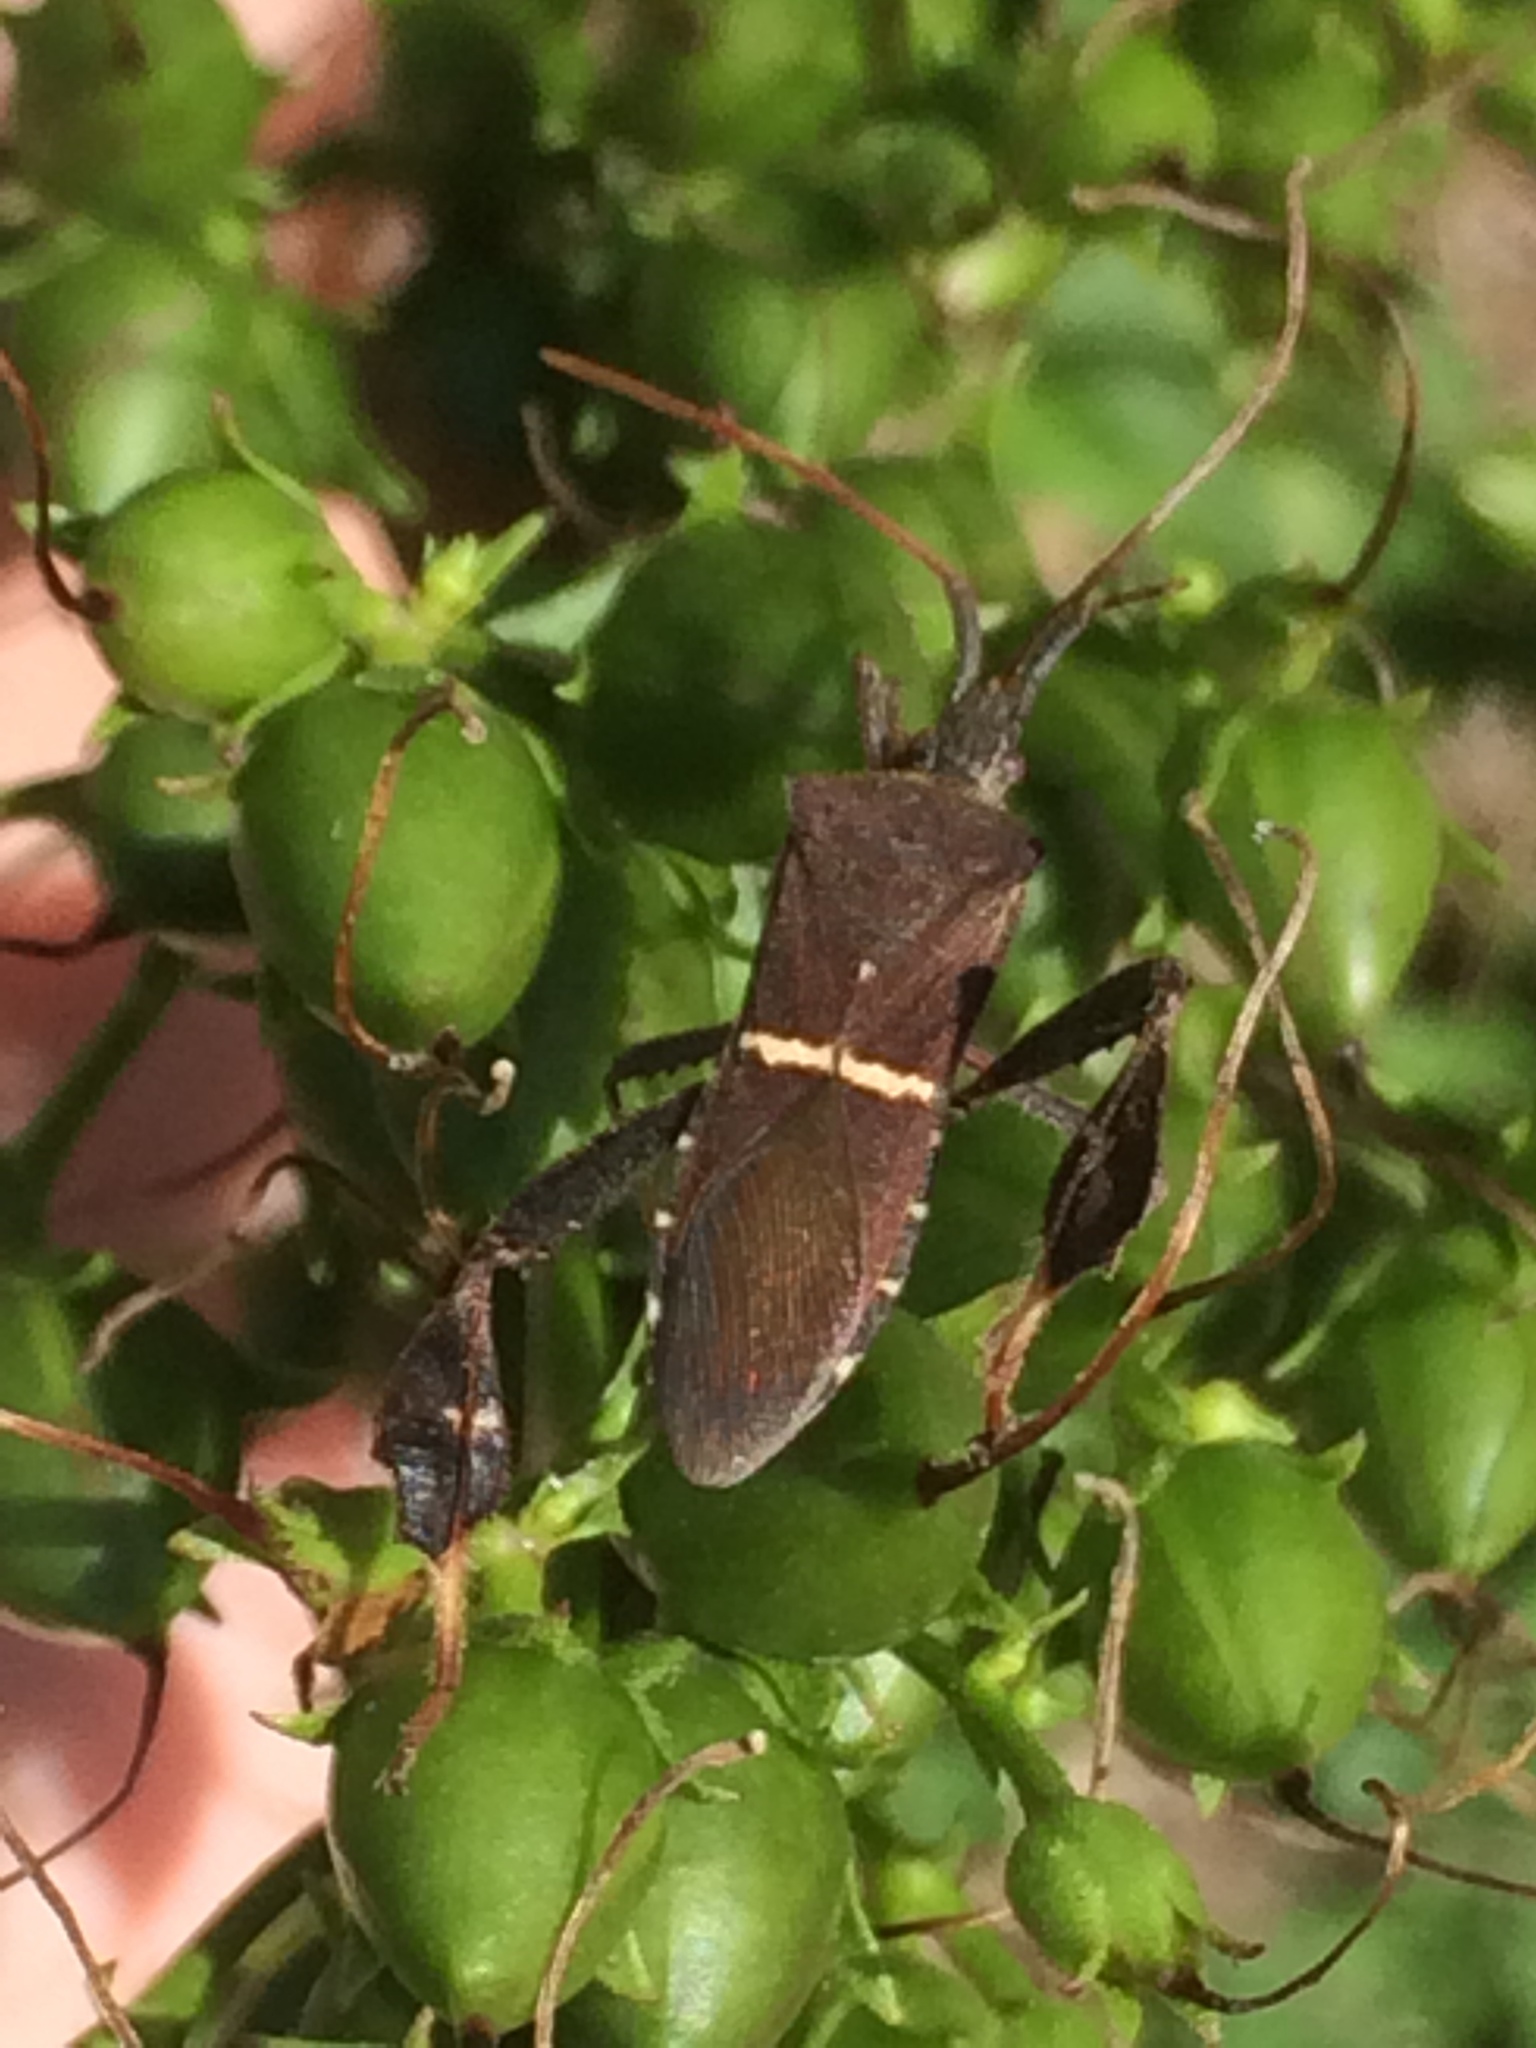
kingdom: Animalia
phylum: Arthropoda
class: Insecta
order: Hemiptera
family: Coreidae
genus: Leptoglossus
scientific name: Leptoglossus phyllopus
